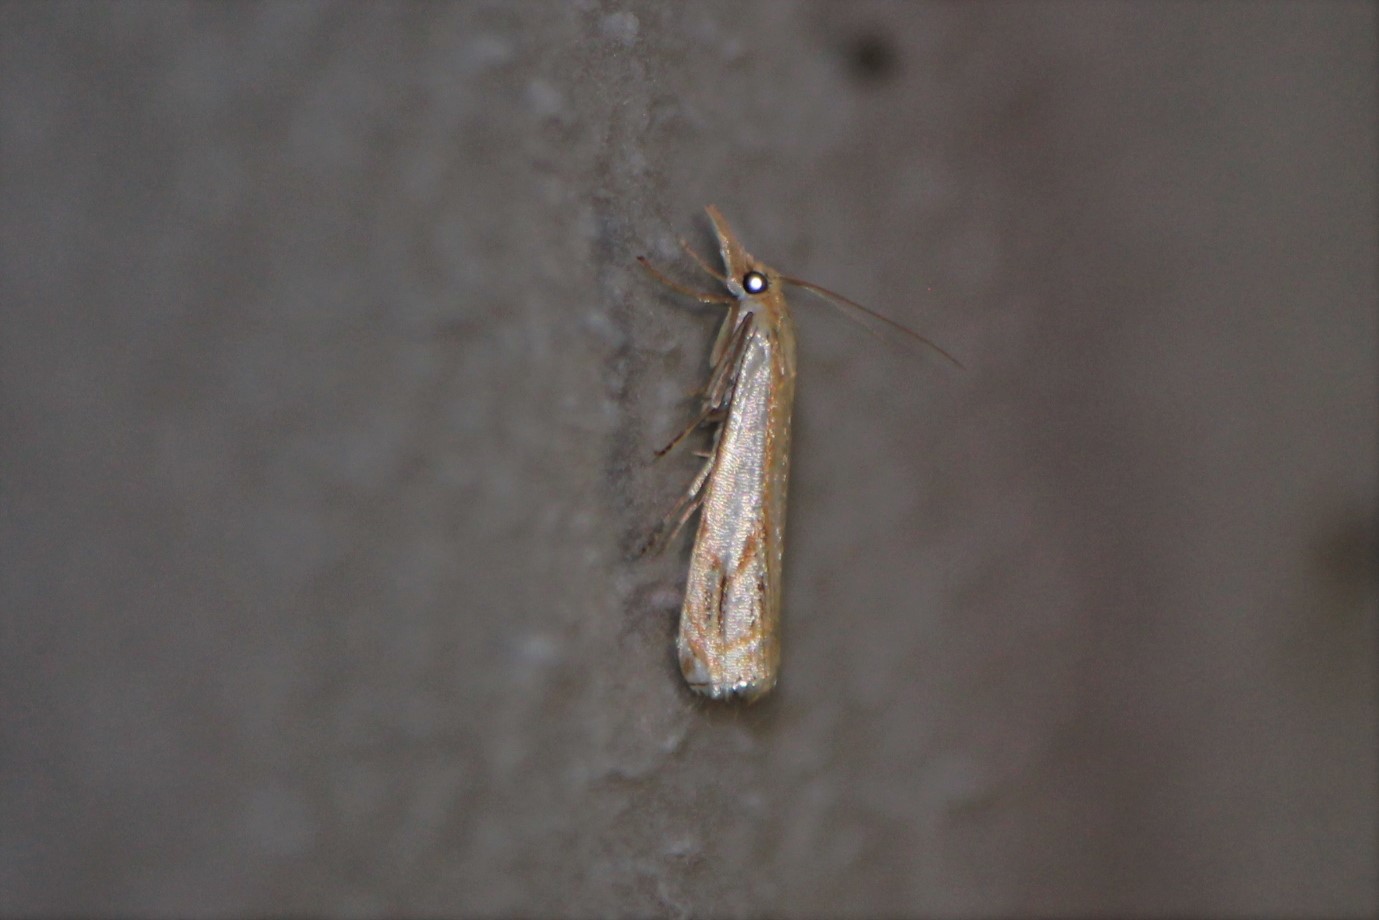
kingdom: Animalia
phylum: Arthropoda
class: Insecta
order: Lepidoptera
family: Crambidae
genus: Crambus
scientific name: Crambus agitatellus
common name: Double-banded grass-veneer
